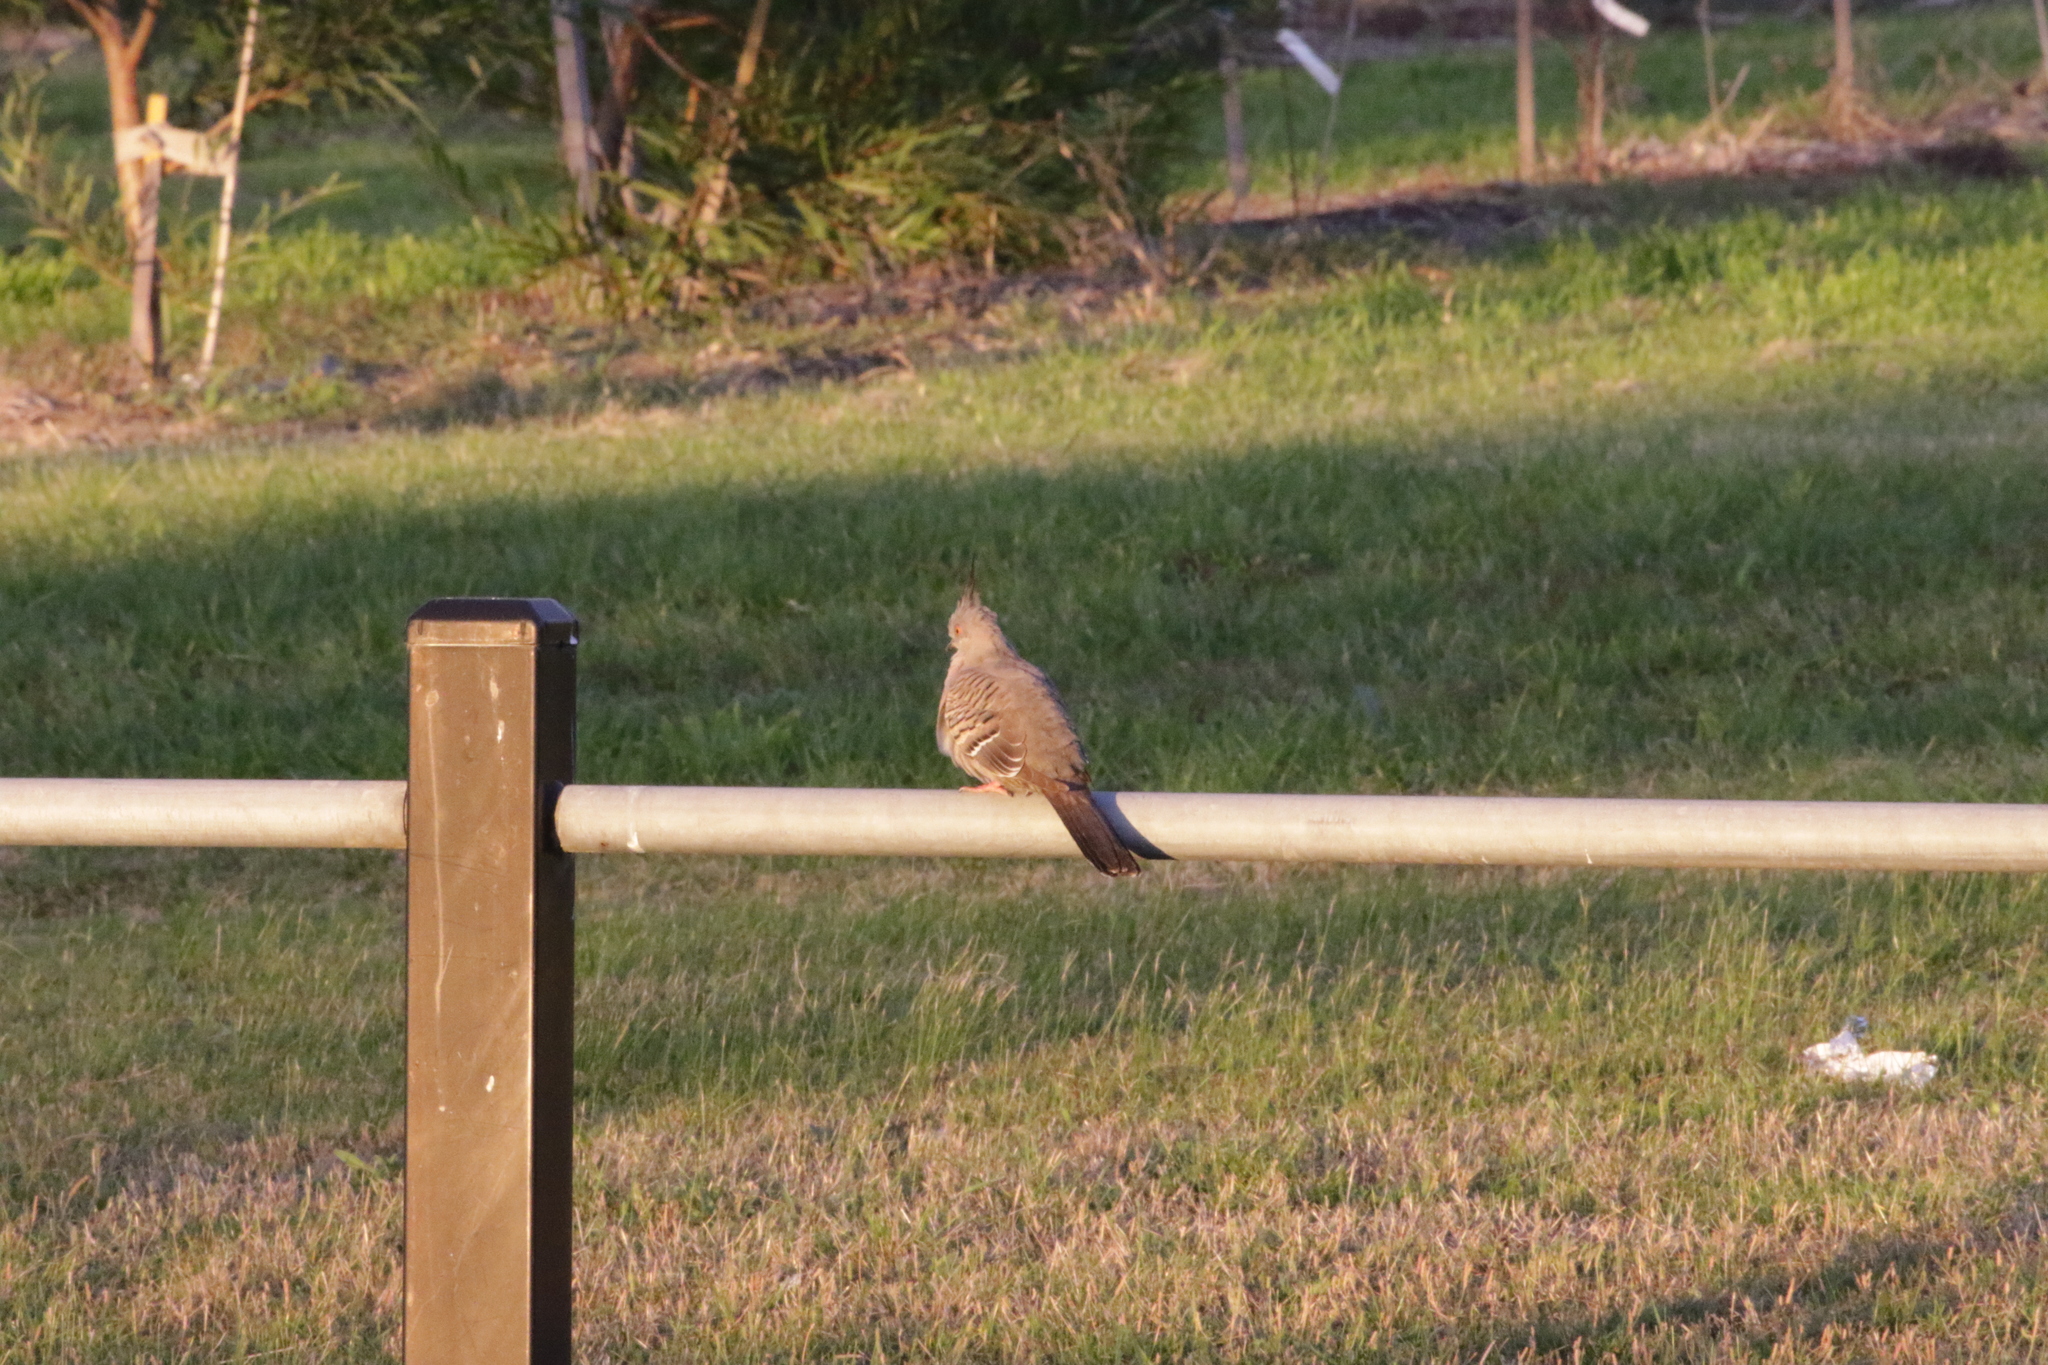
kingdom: Animalia
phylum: Chordata
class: Aves
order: Columbiformes
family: Columbidae
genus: Ocyphaps
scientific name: Ocyphaps lophotes
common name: Crested pigeon
